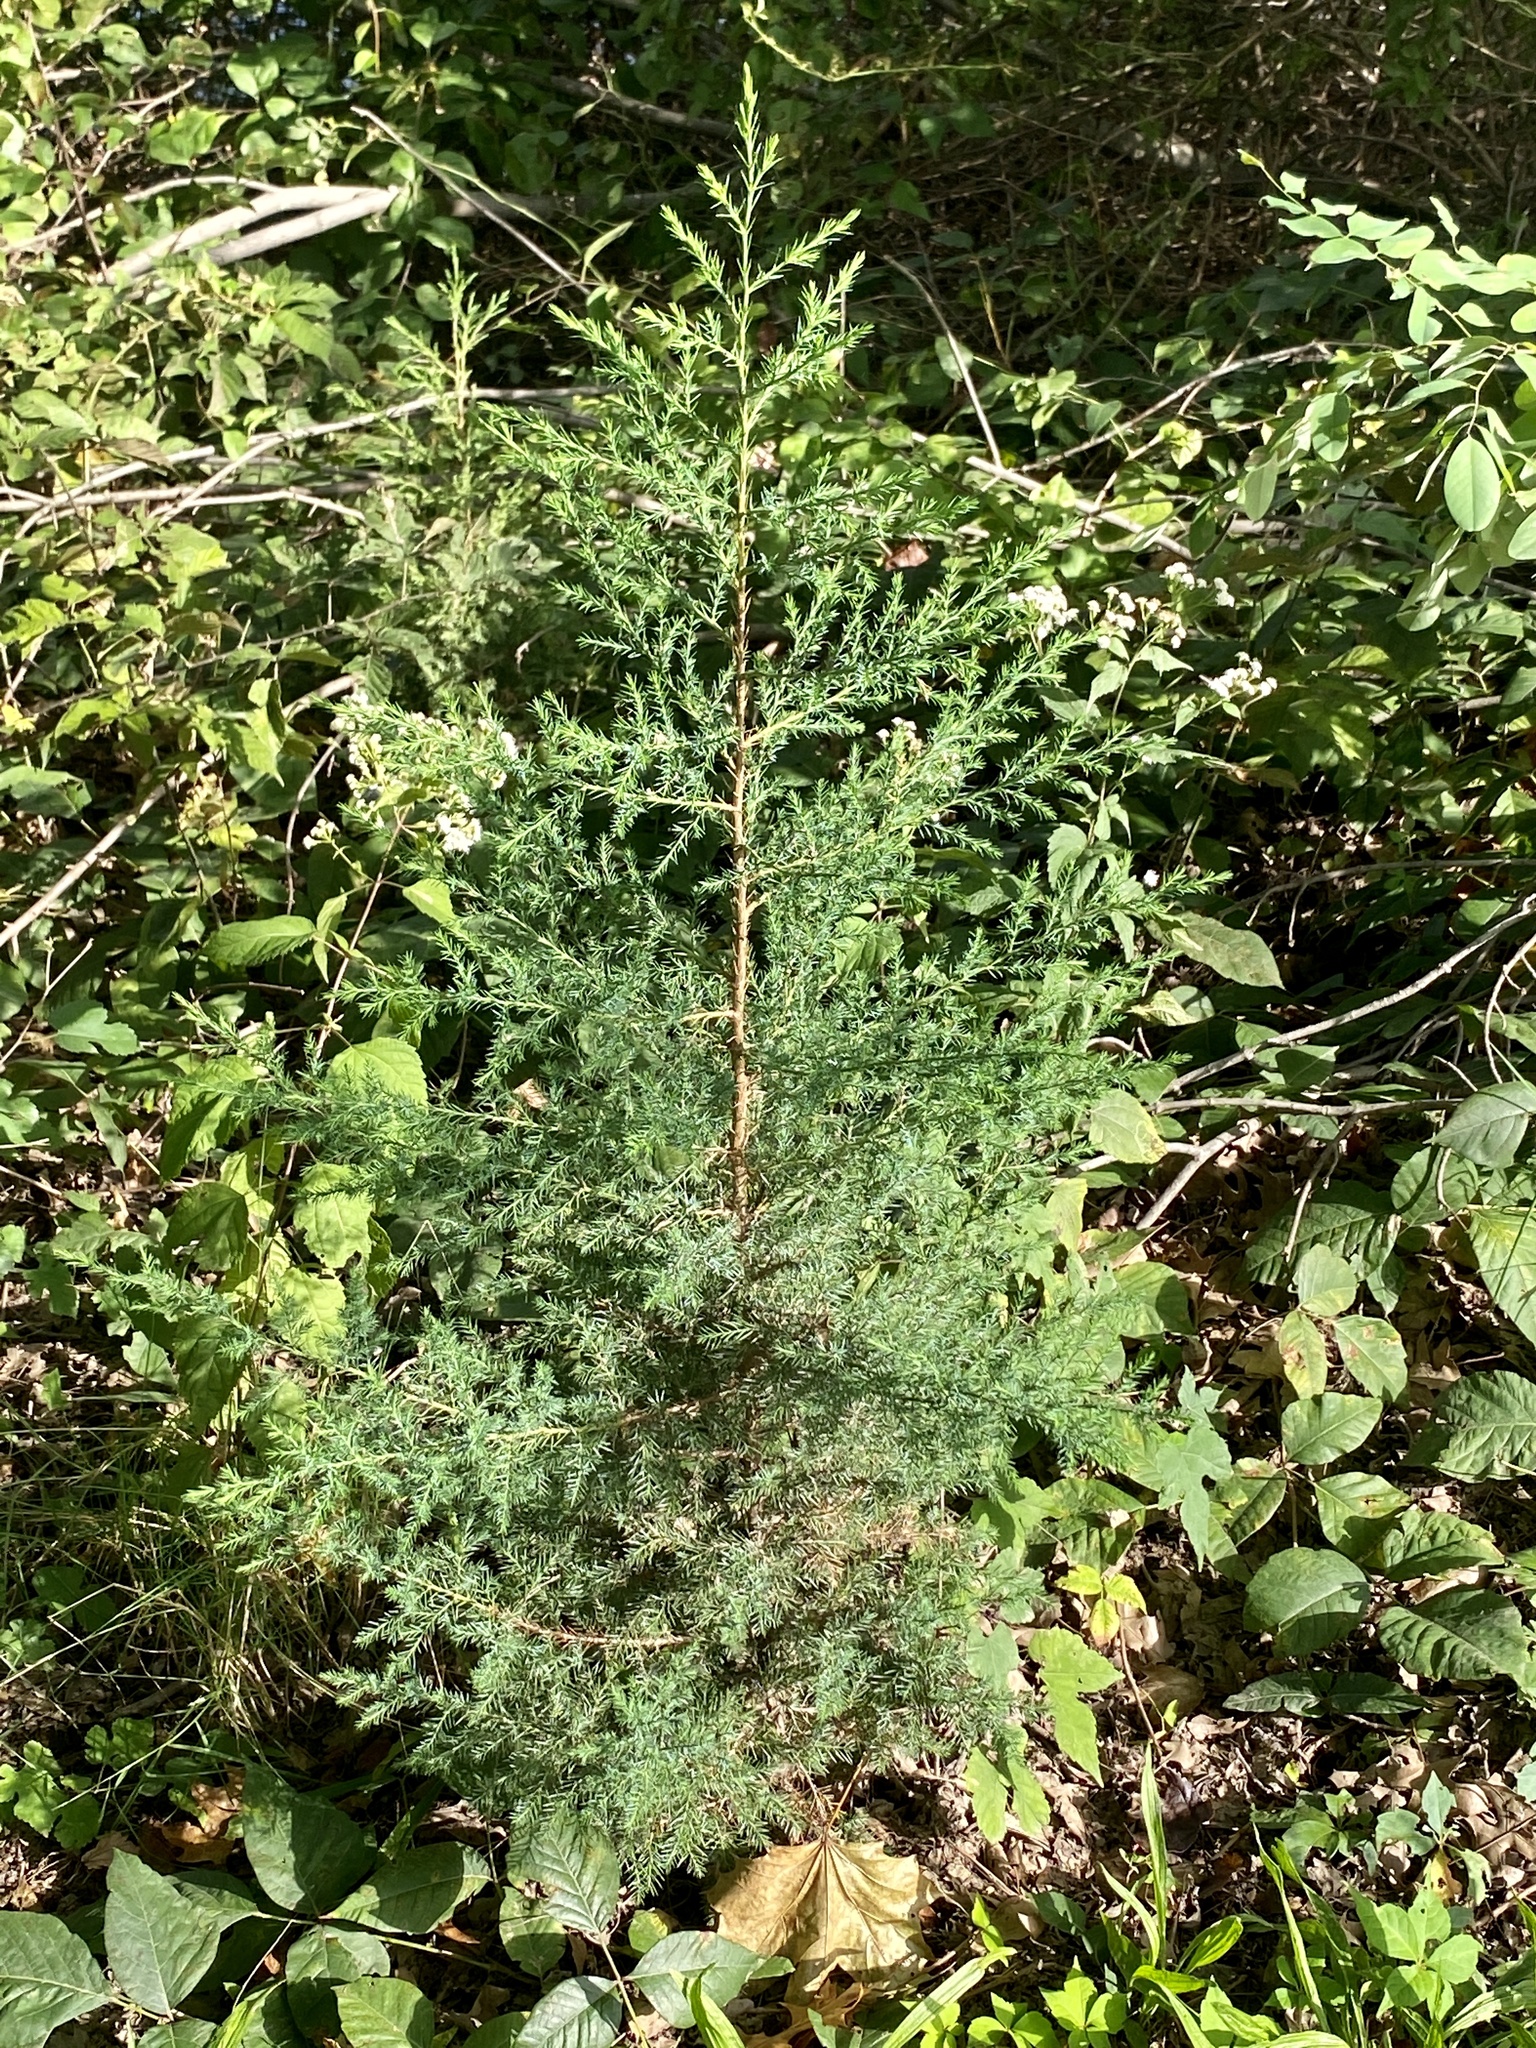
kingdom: Plantae
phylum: Tracheophyta
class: Pinopsida
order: Pinales
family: Cupressaceae
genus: Juniperus
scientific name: Juniperus virginiana
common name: Red juniper
